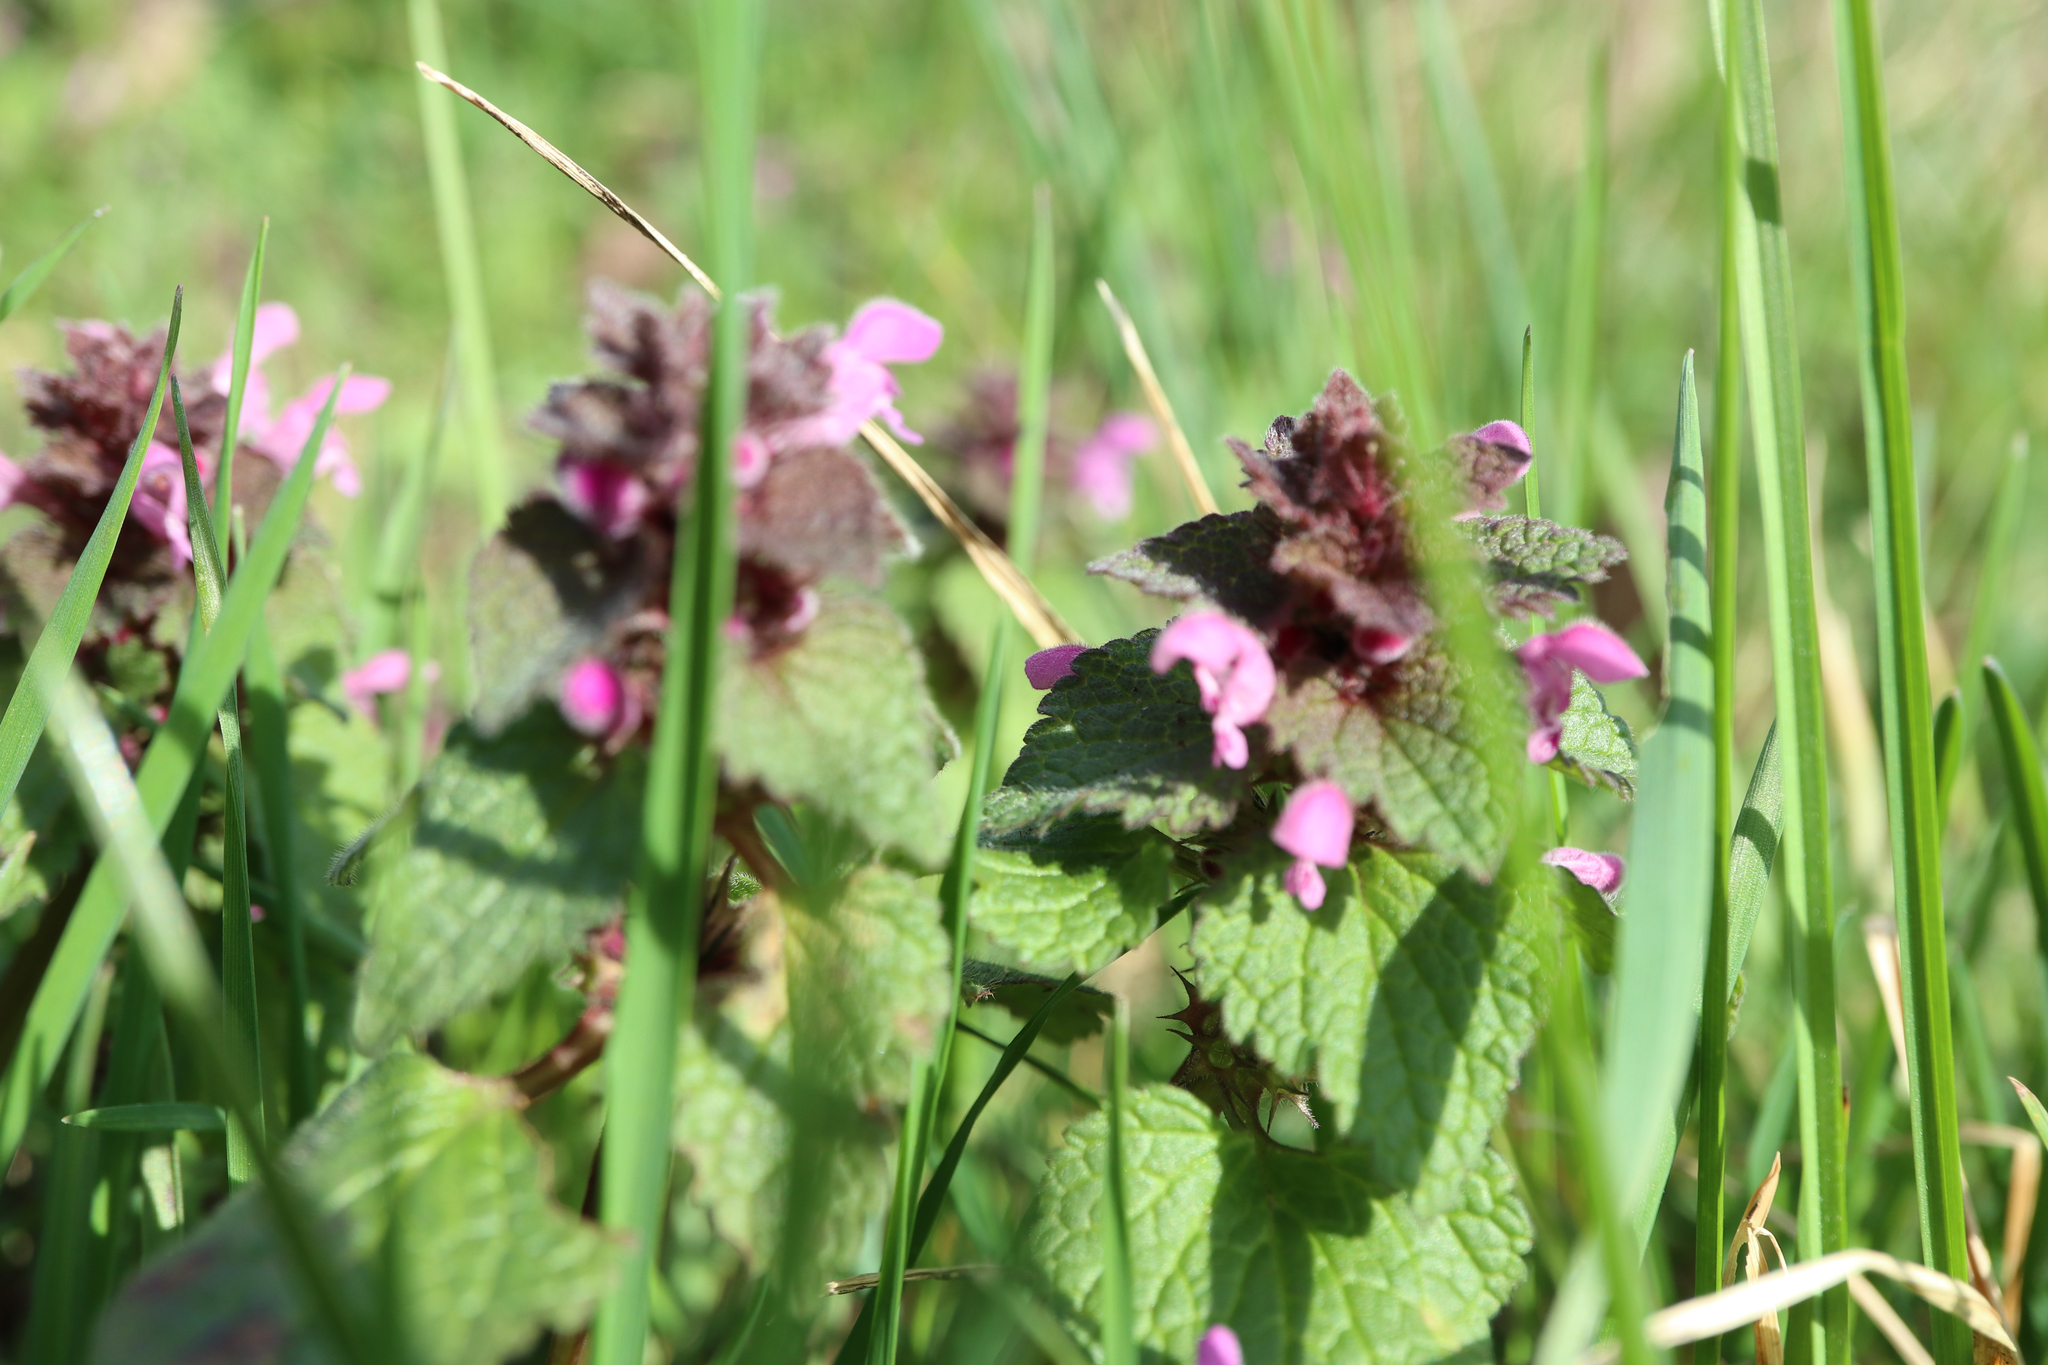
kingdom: Plantae
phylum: Tracheophyta
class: Magnoliopsida
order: Lamiales
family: Lamiaceae
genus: Lamium
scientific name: Lamium purpureum
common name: Red dead-nettle
